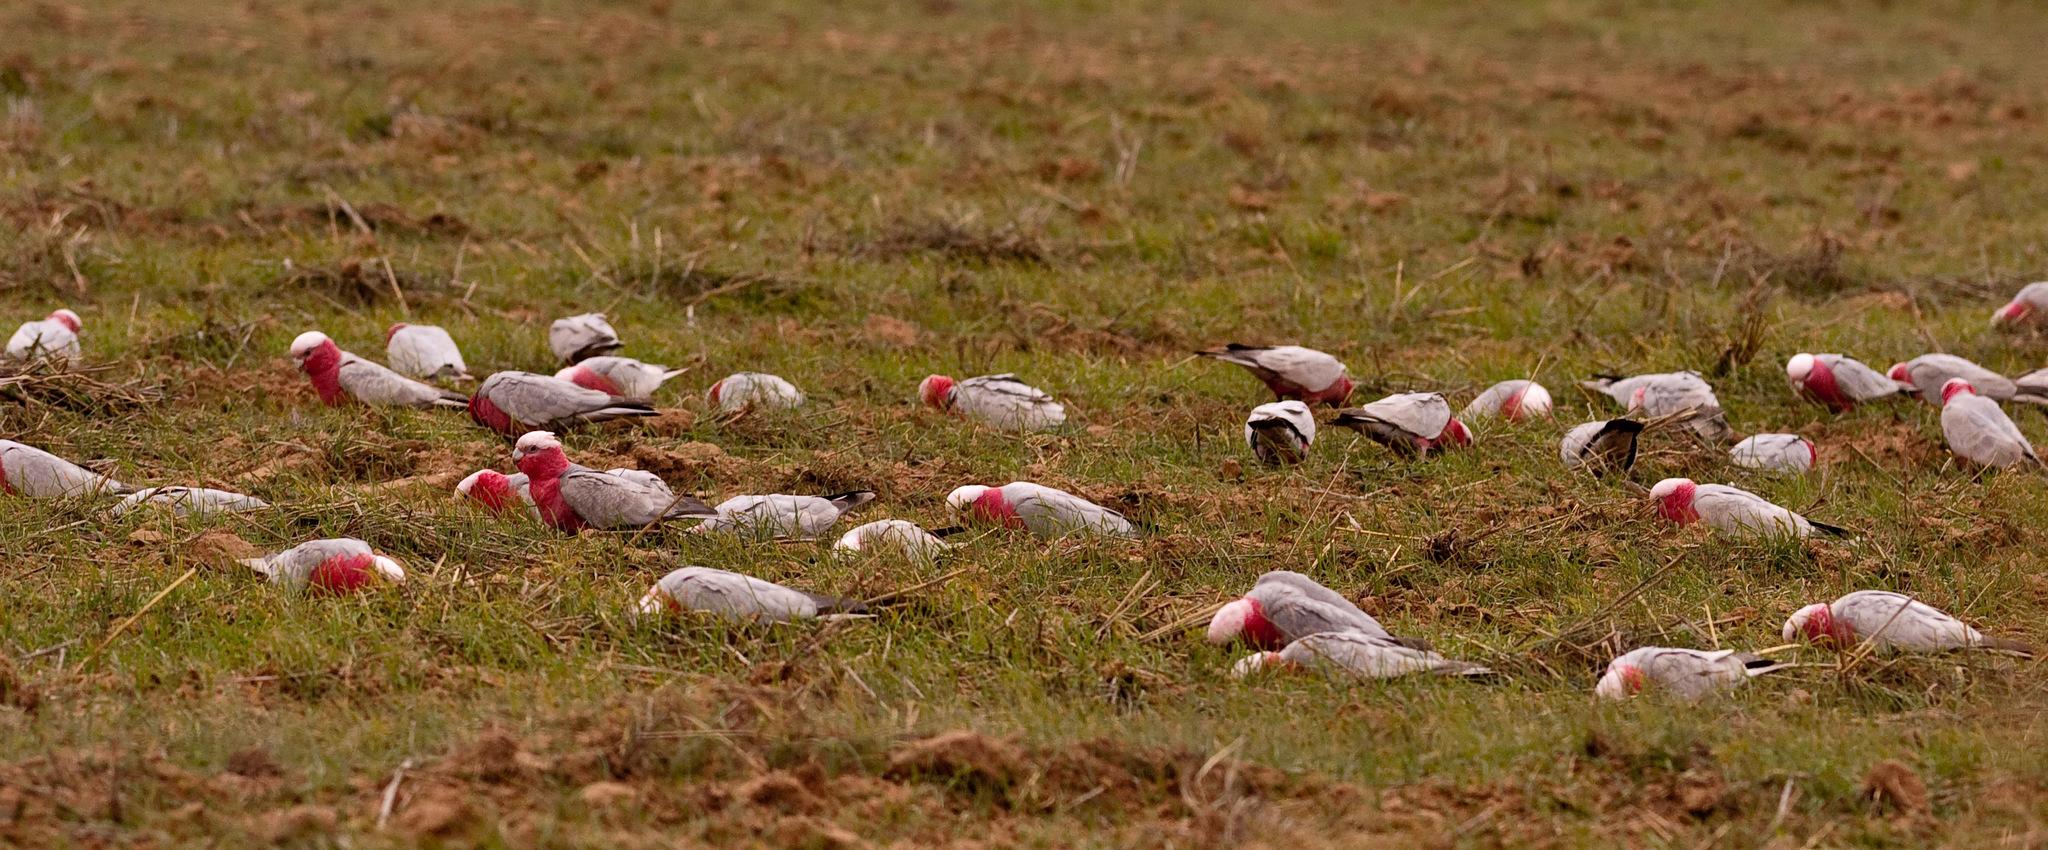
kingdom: Animalia
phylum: Chordata
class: Aves
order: Psittaciformes
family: Psittacidae
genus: Eolophus
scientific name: Eolophus roseicapilla
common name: Galah
